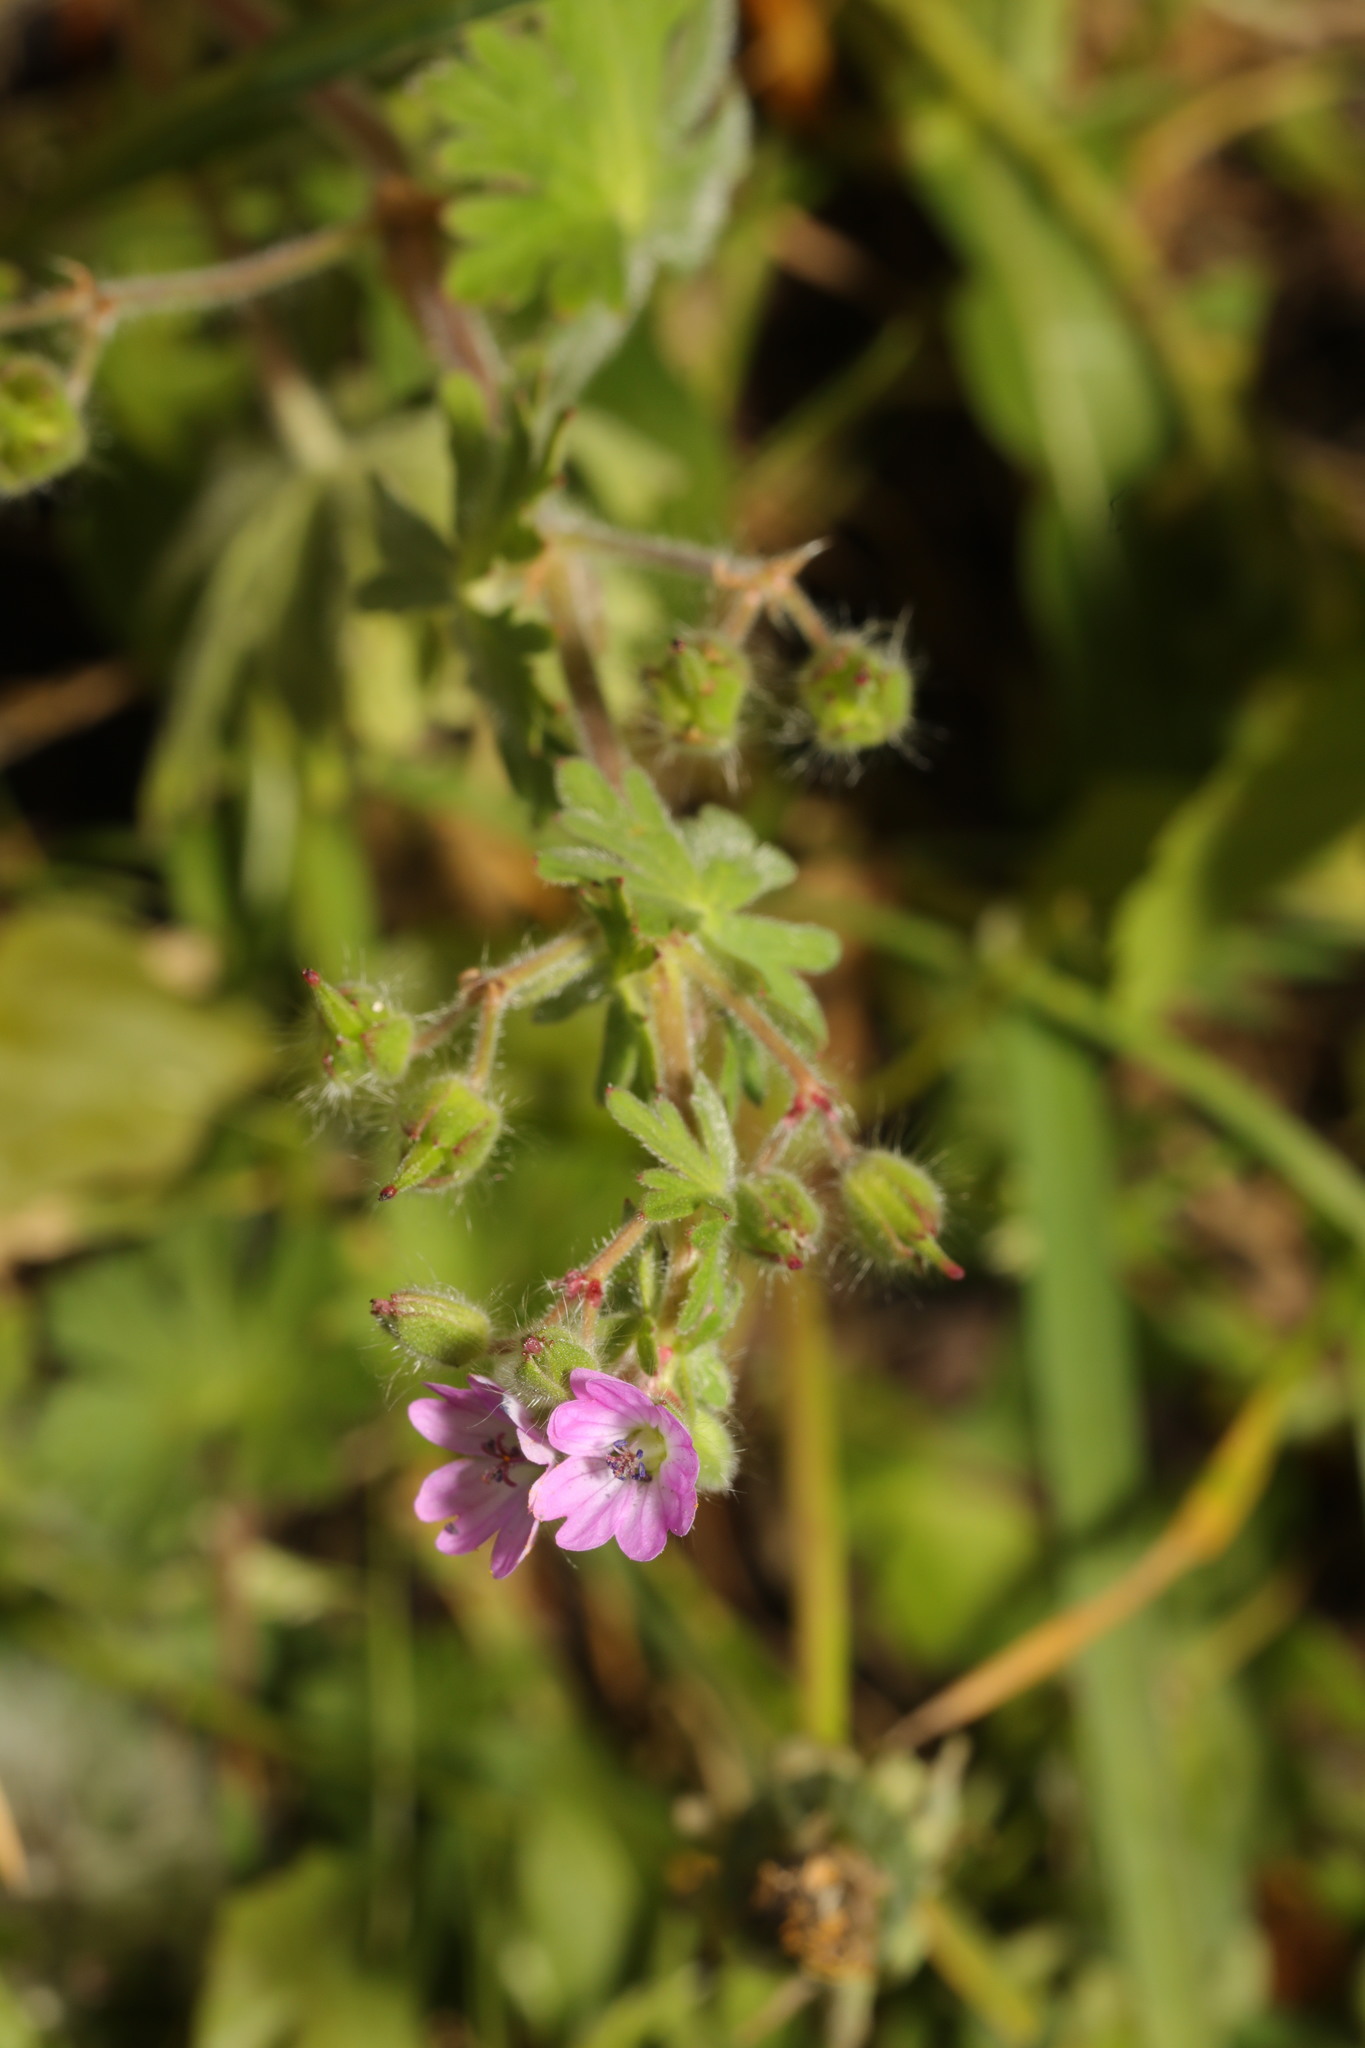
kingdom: Plantae
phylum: Tracheophyta
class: Magnoliopsida
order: Geraniales
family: Geraniaceae
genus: Geranium
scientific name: Geranium molle
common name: Dove's-foot crane's-bill
